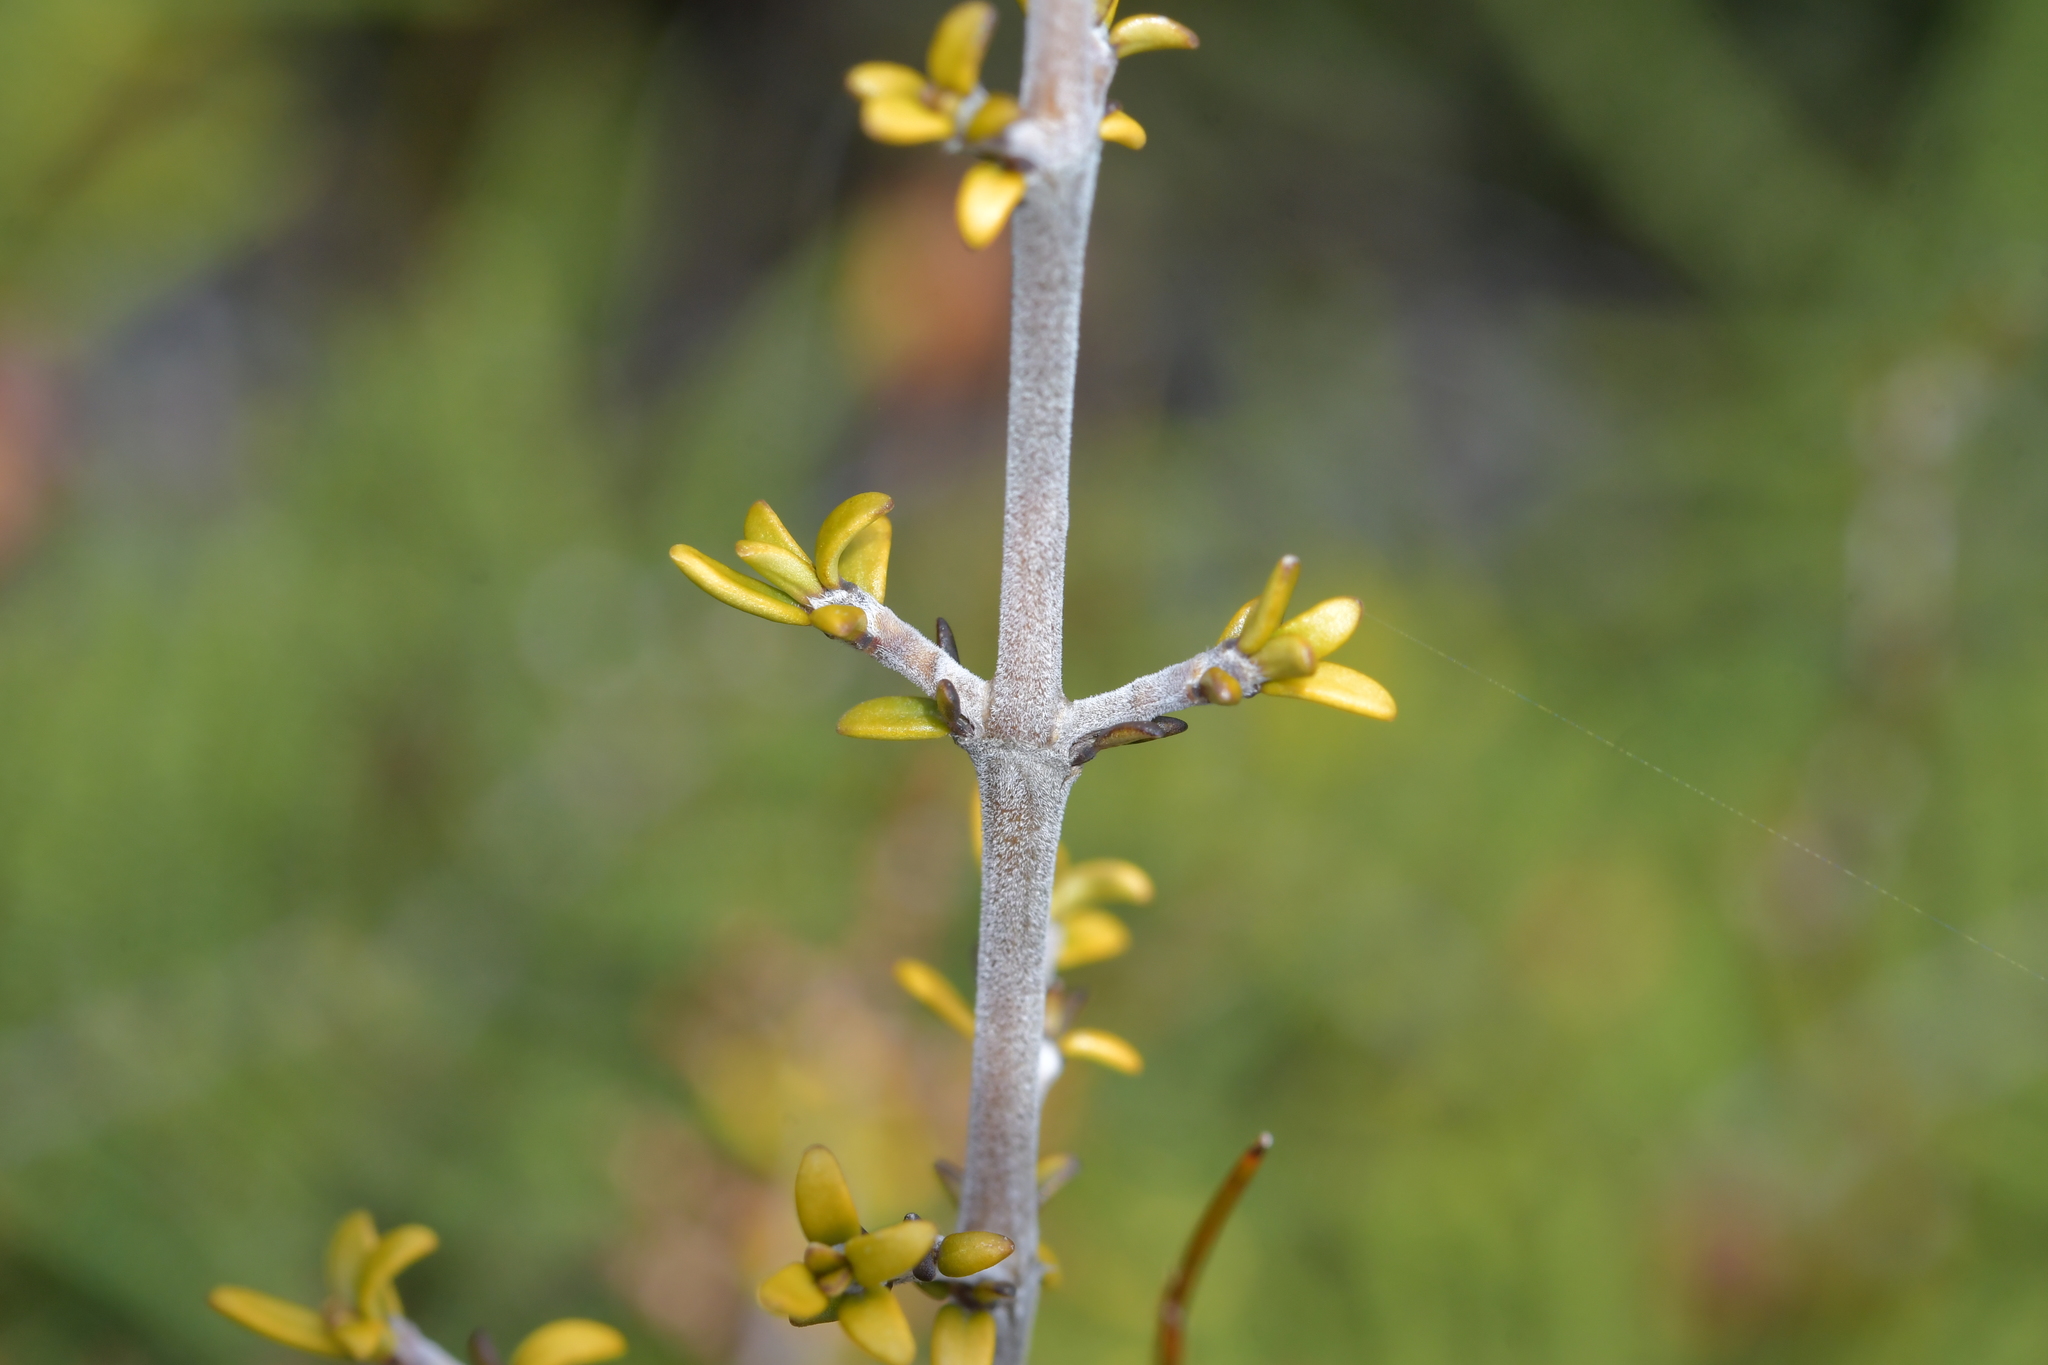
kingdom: Plantae
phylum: Tracheophyta
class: Magnoliopsida
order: Gentianales
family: Rubiaceae
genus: Coprosma
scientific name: Coprosma cheesemanii
